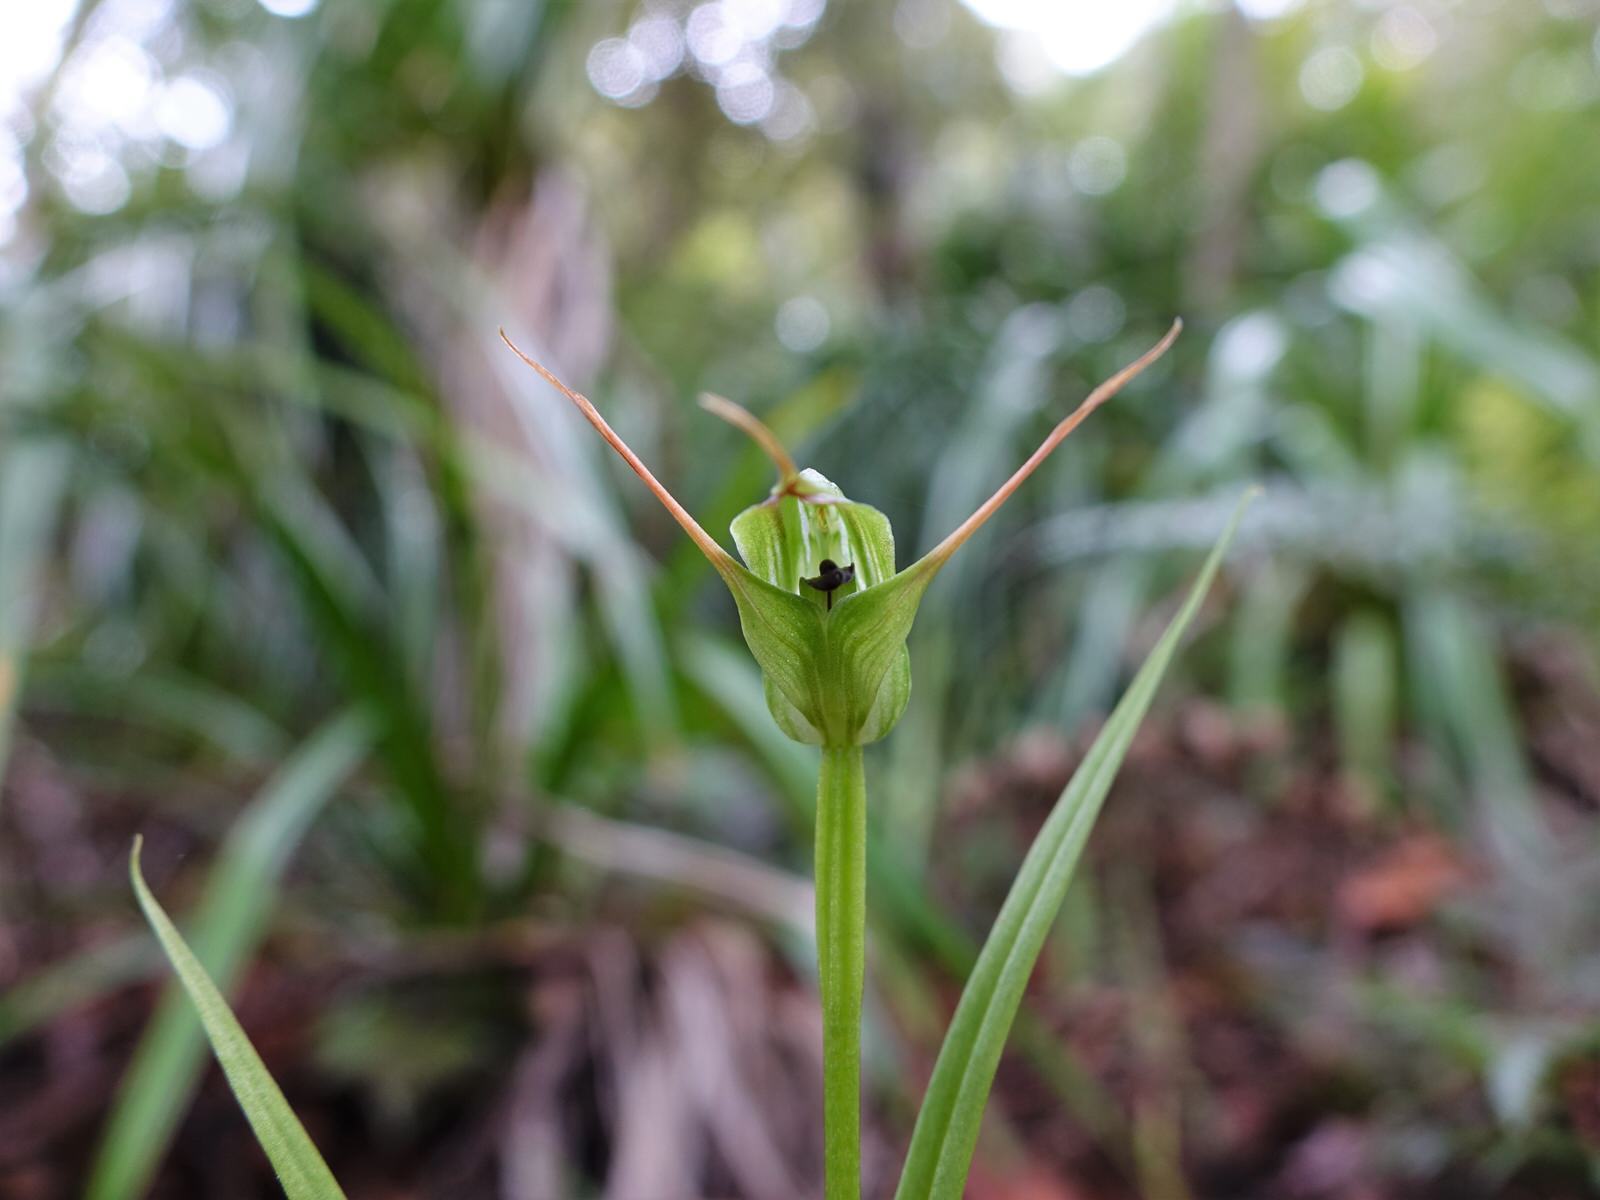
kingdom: Plantae
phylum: Tracheophyta
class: Liliopsida
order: Asparagales
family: Orchidaceae
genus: Pterostylis
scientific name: Pterostylis agathicola
